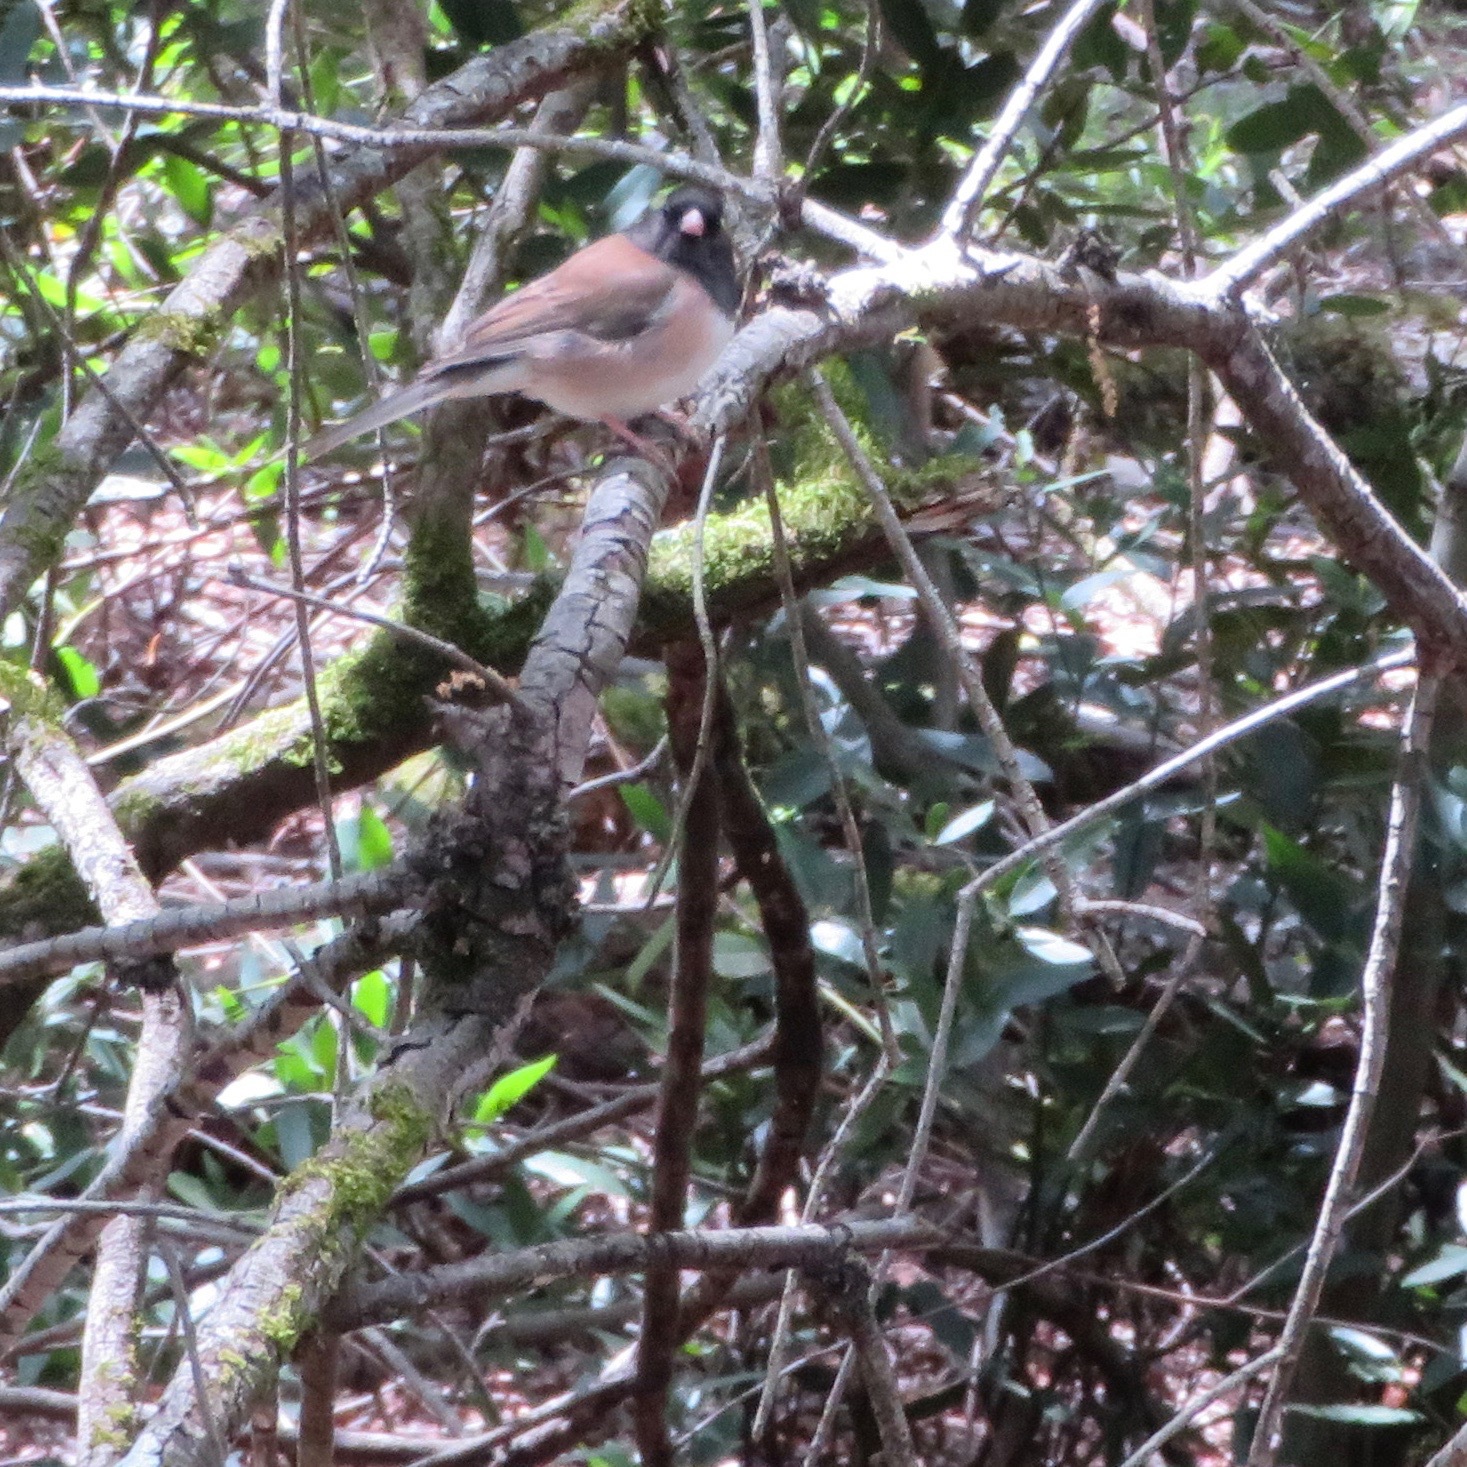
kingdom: Animalia
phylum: Chordata
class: Aves
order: Passeriformes
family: Passerellidae
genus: Junco
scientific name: Junco hyemalis
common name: Dark-eyed junco
